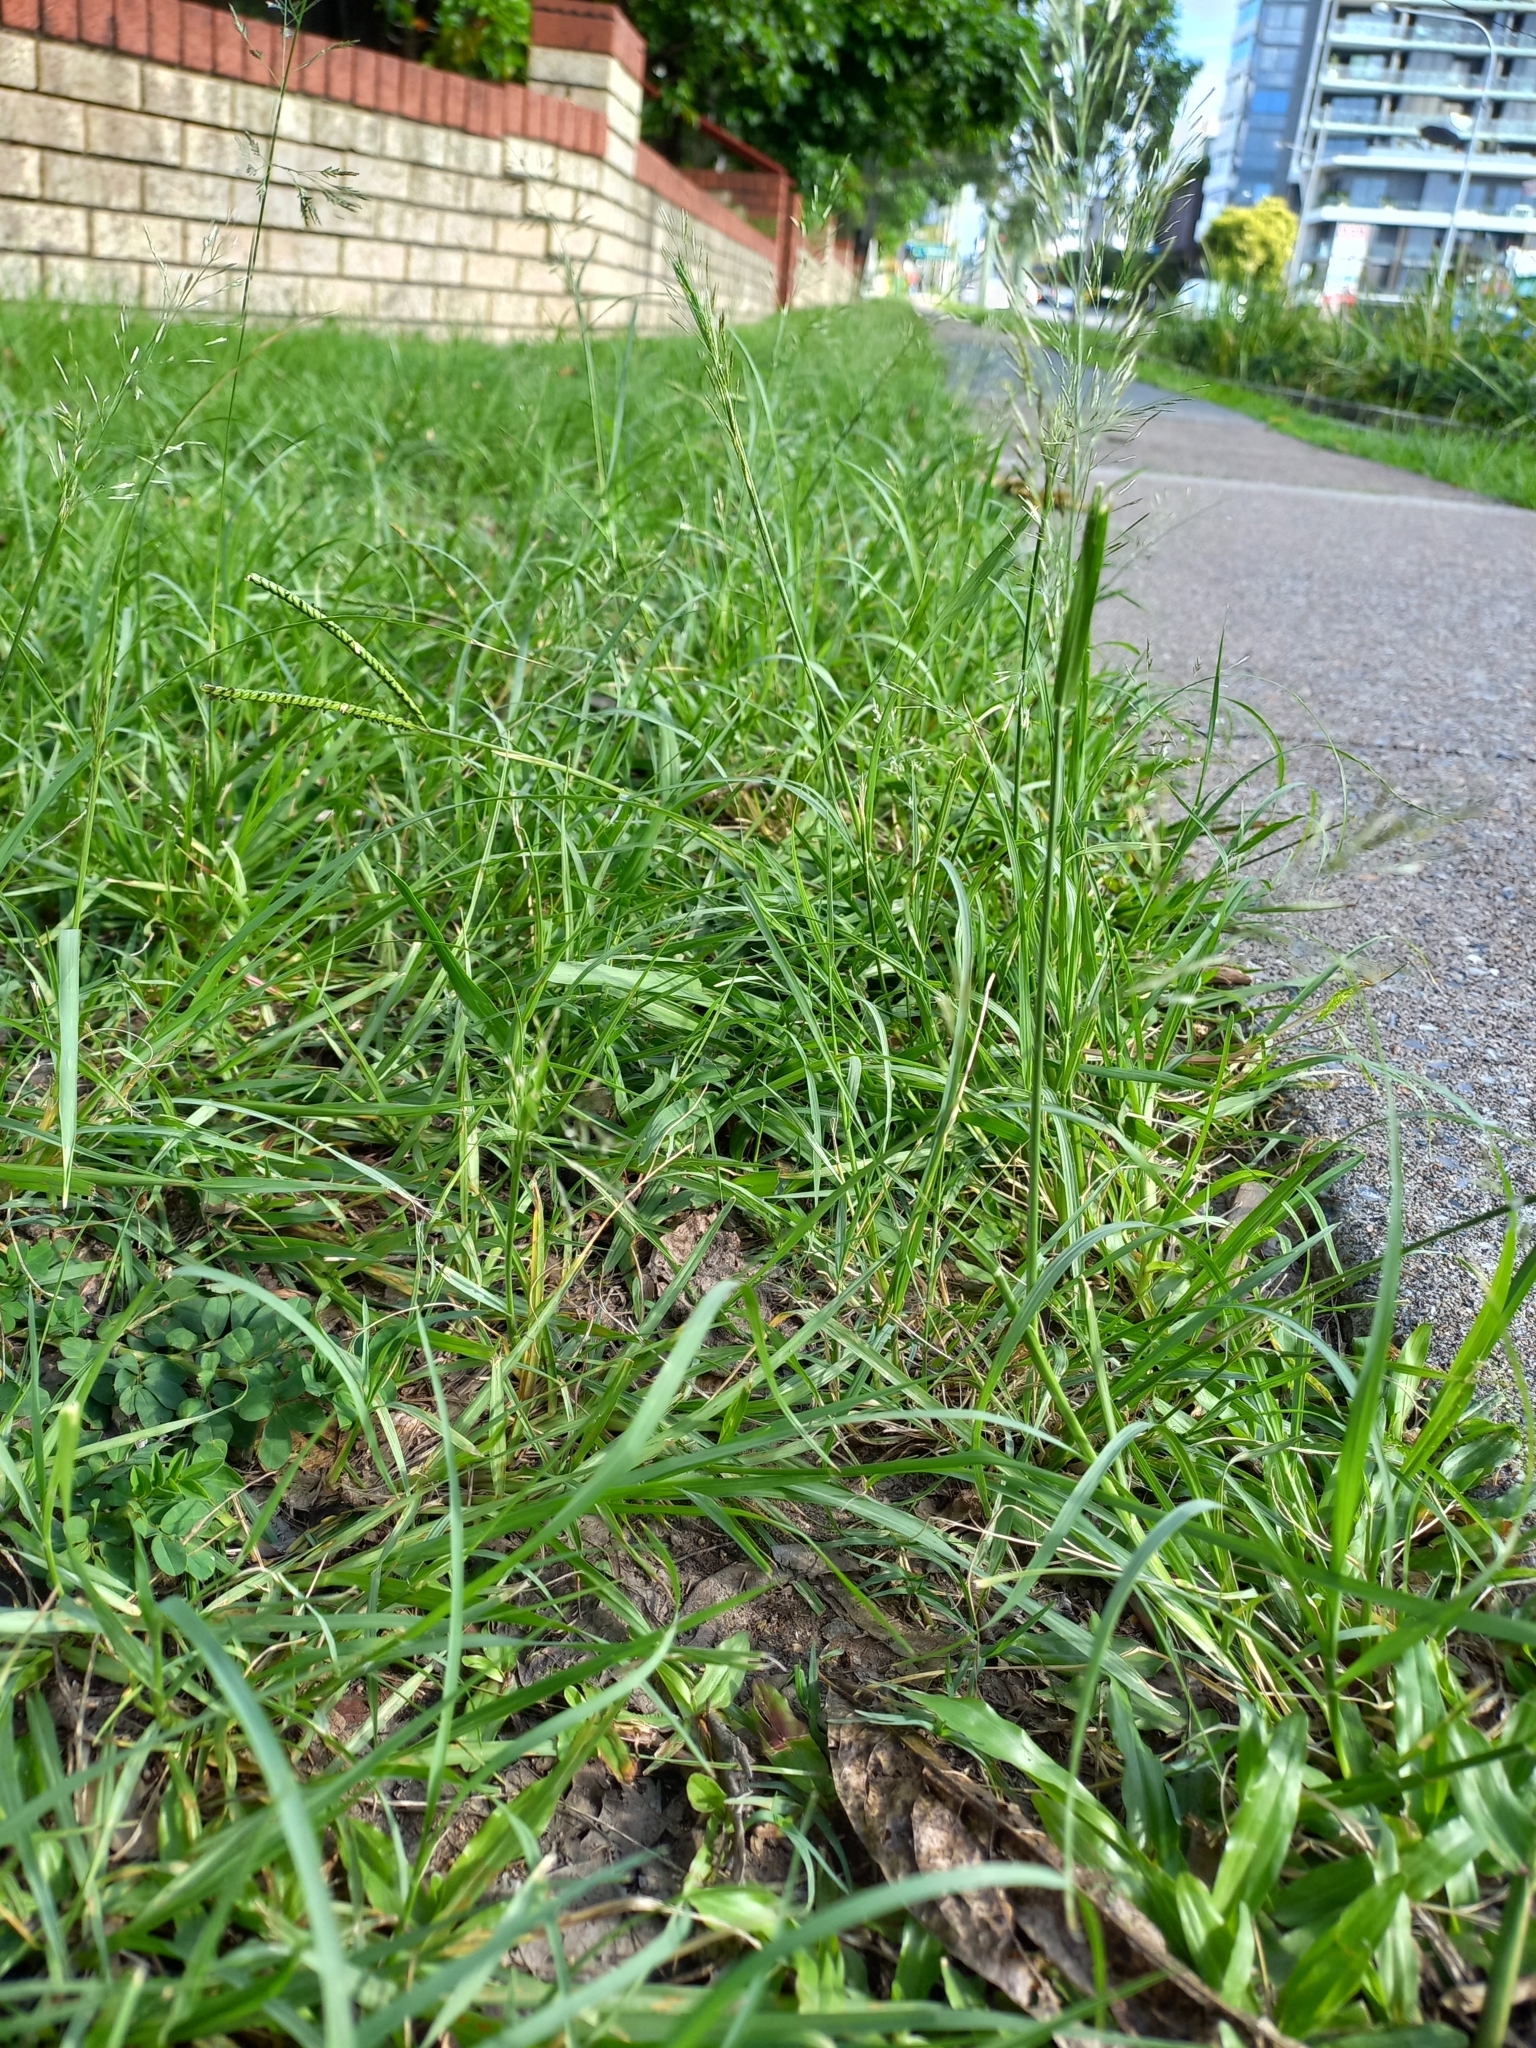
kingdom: Plantae
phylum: Tracheophyta
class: Liliopsida
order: Poales
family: Poaceae
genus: Eragrostis
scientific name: Eragrostis tenuifolia
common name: Elastic grass
